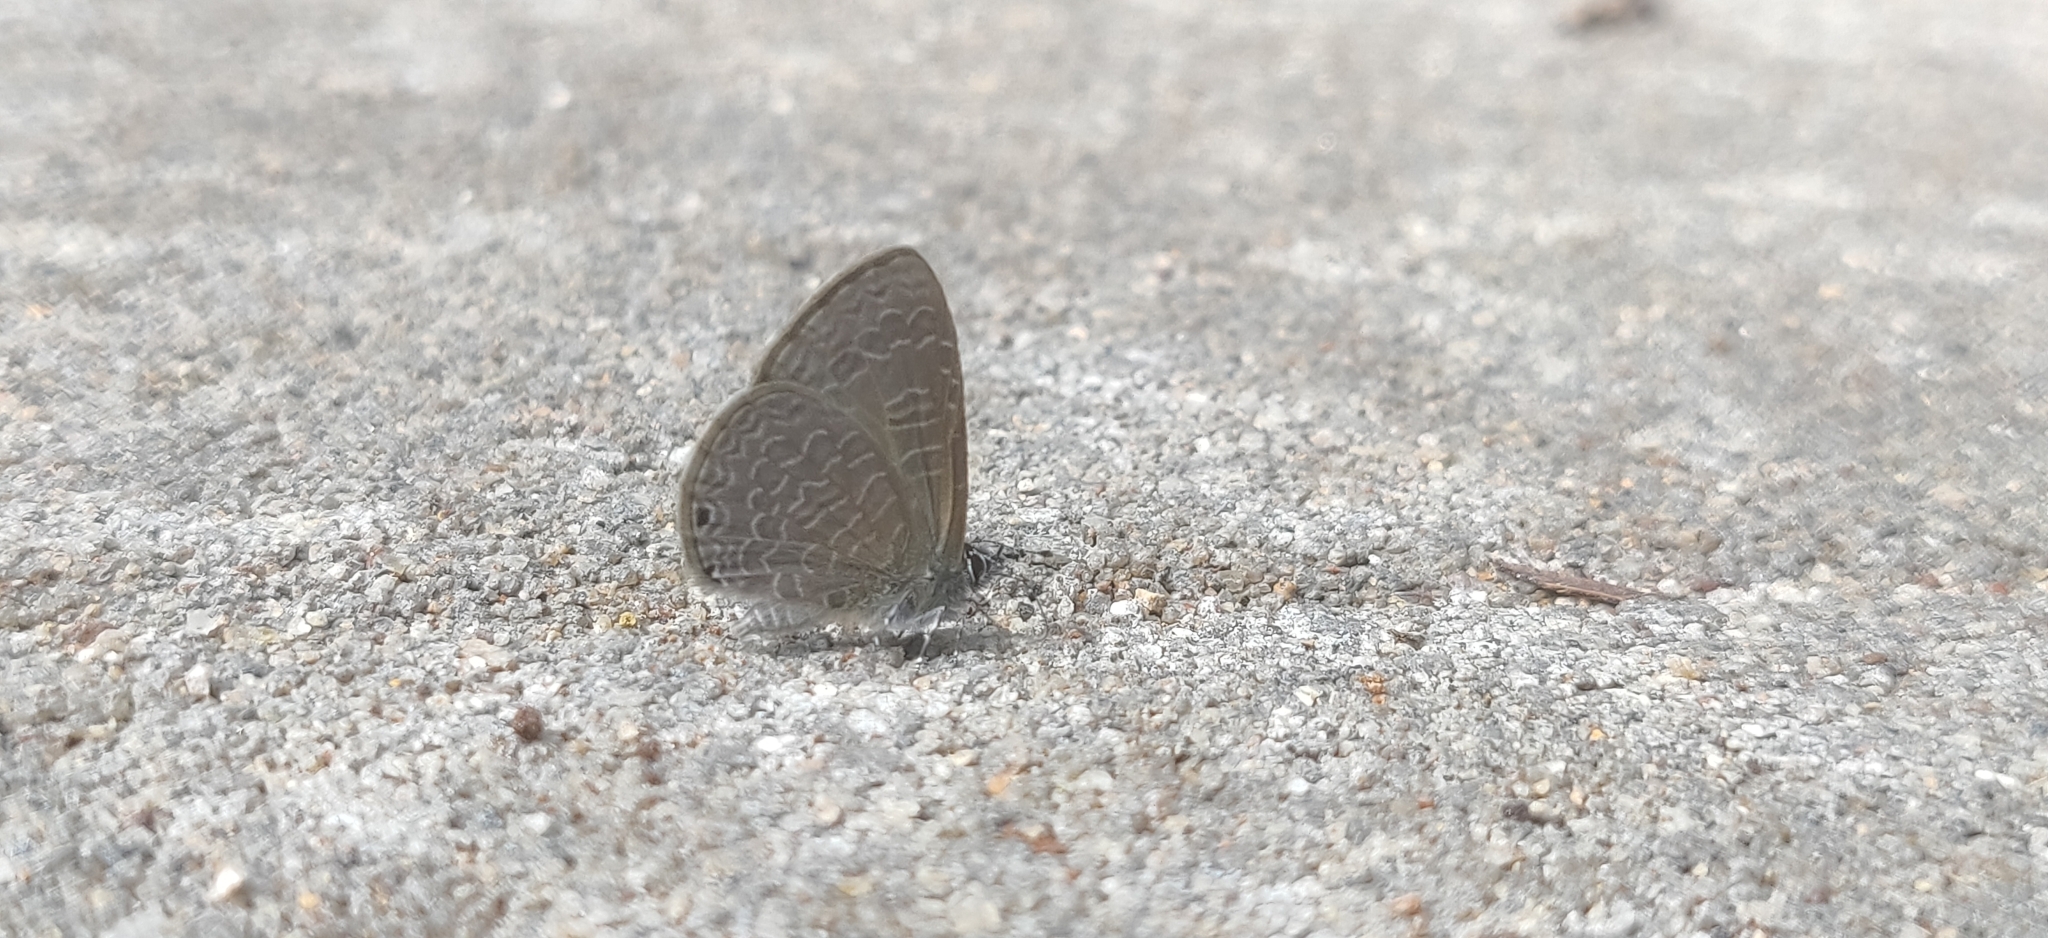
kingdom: Animalia
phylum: Arthropoda
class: Insecta
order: Lepidoptera
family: Lycaenidae
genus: Petrelaea
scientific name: Petrelaea dana
